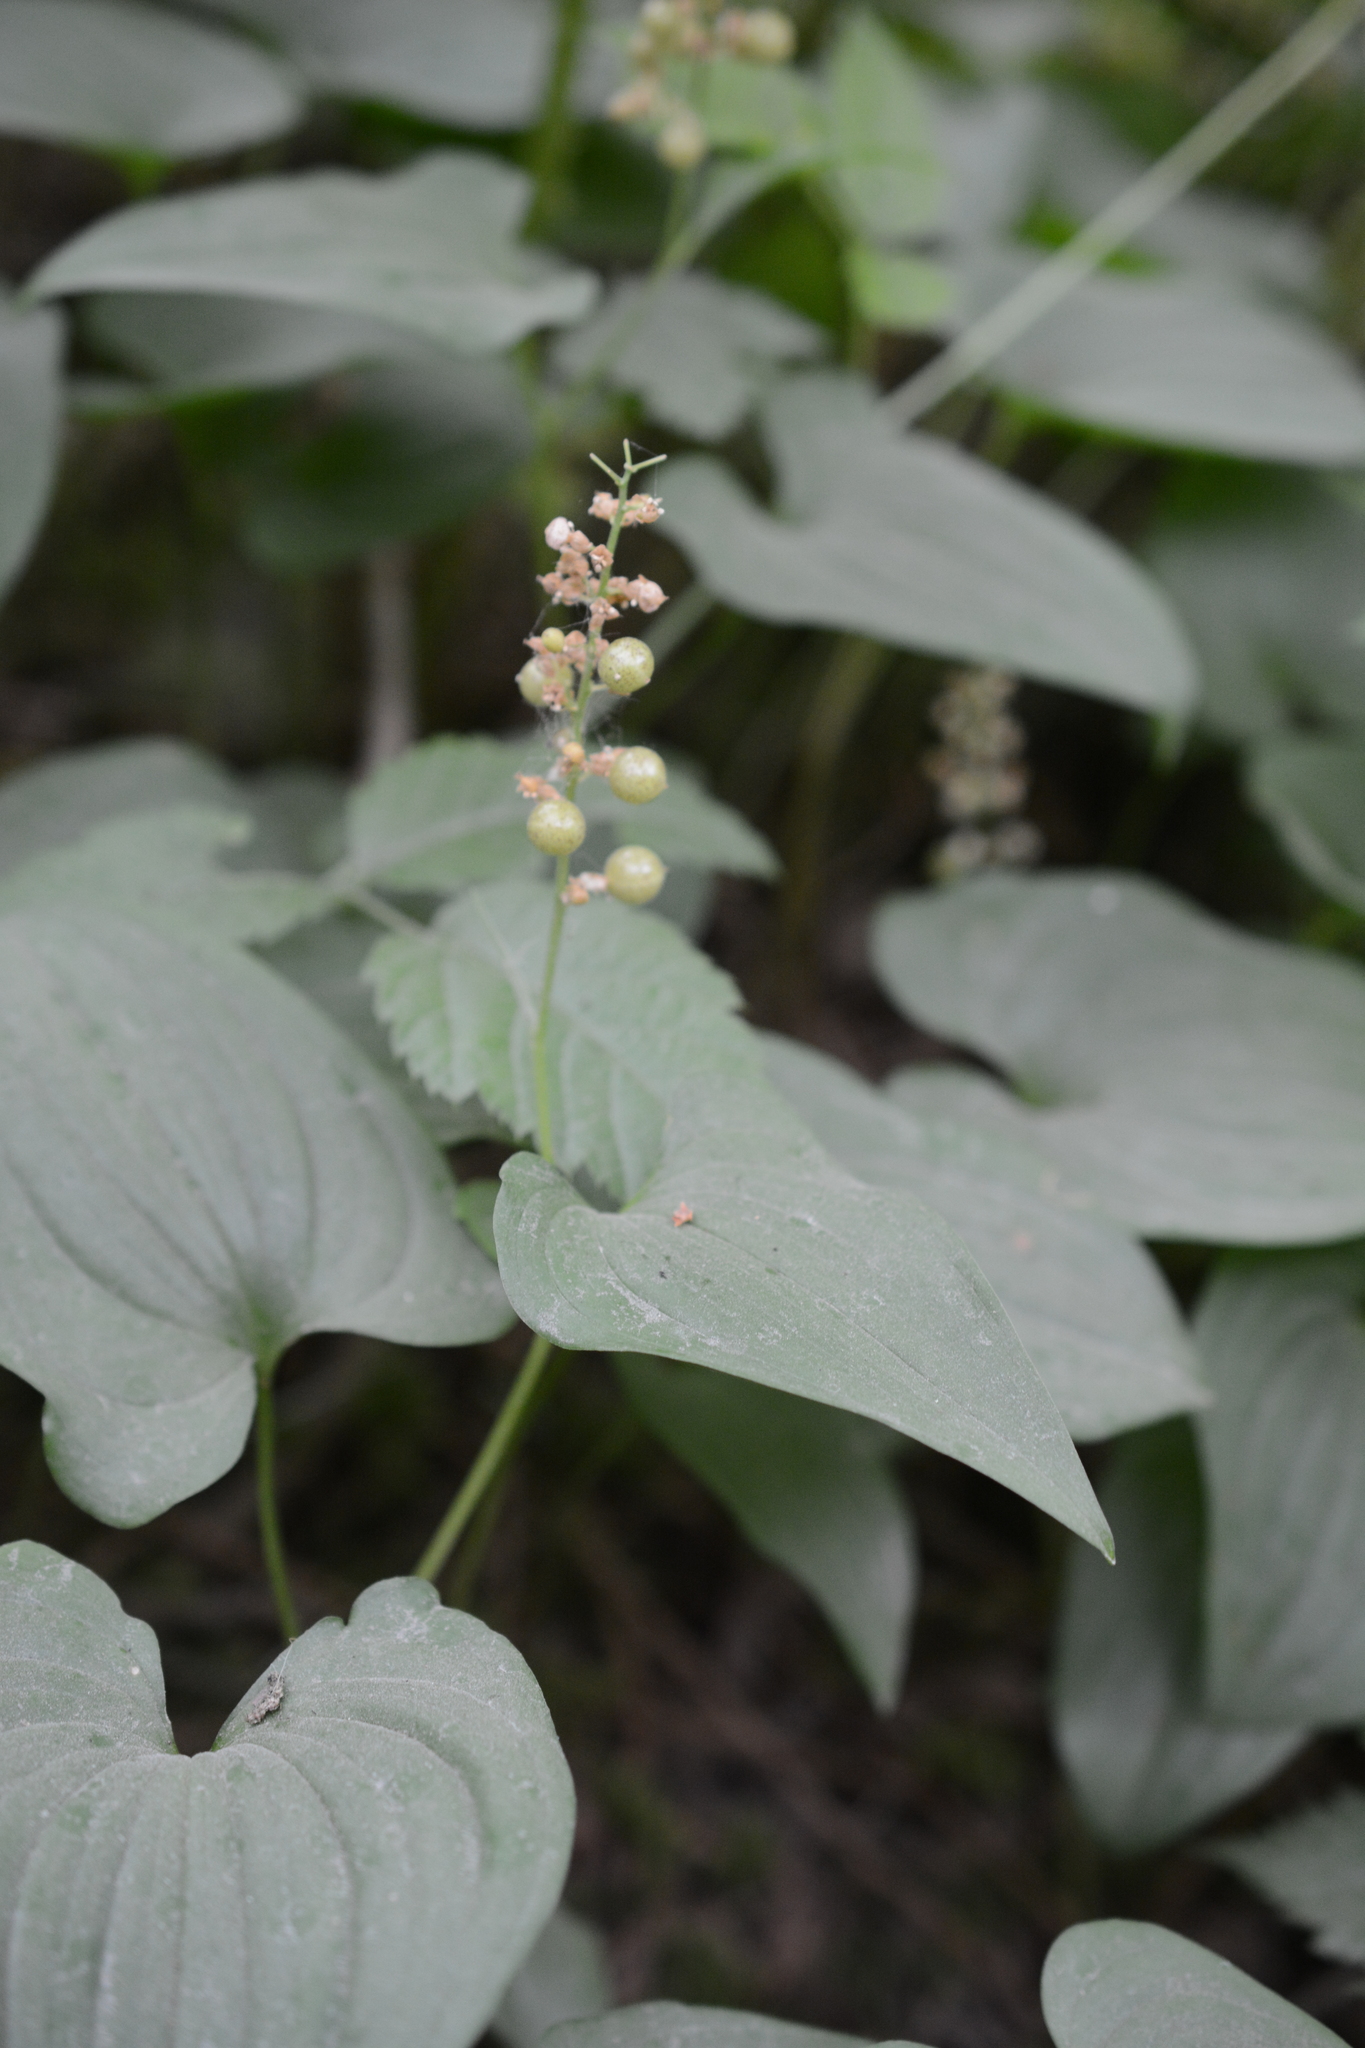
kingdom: Plantae
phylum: Tracheophyta
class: Liliopsida
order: Asparagales
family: Asparagaceae
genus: Maianthemum
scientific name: Maianthemum dilatatum
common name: False lily-of-the-valley
